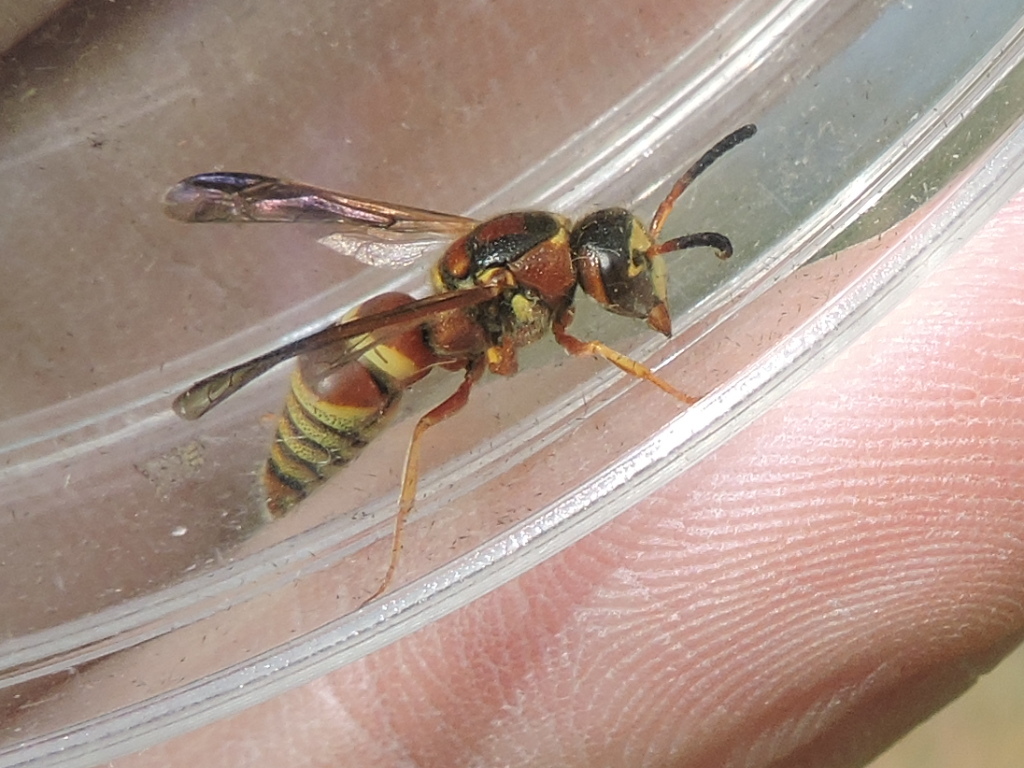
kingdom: Animalia
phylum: Arthropoda
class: Insecta
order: Hymenoptera
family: Eumenidae
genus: Euodynerus
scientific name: Euodynerus pratensis
